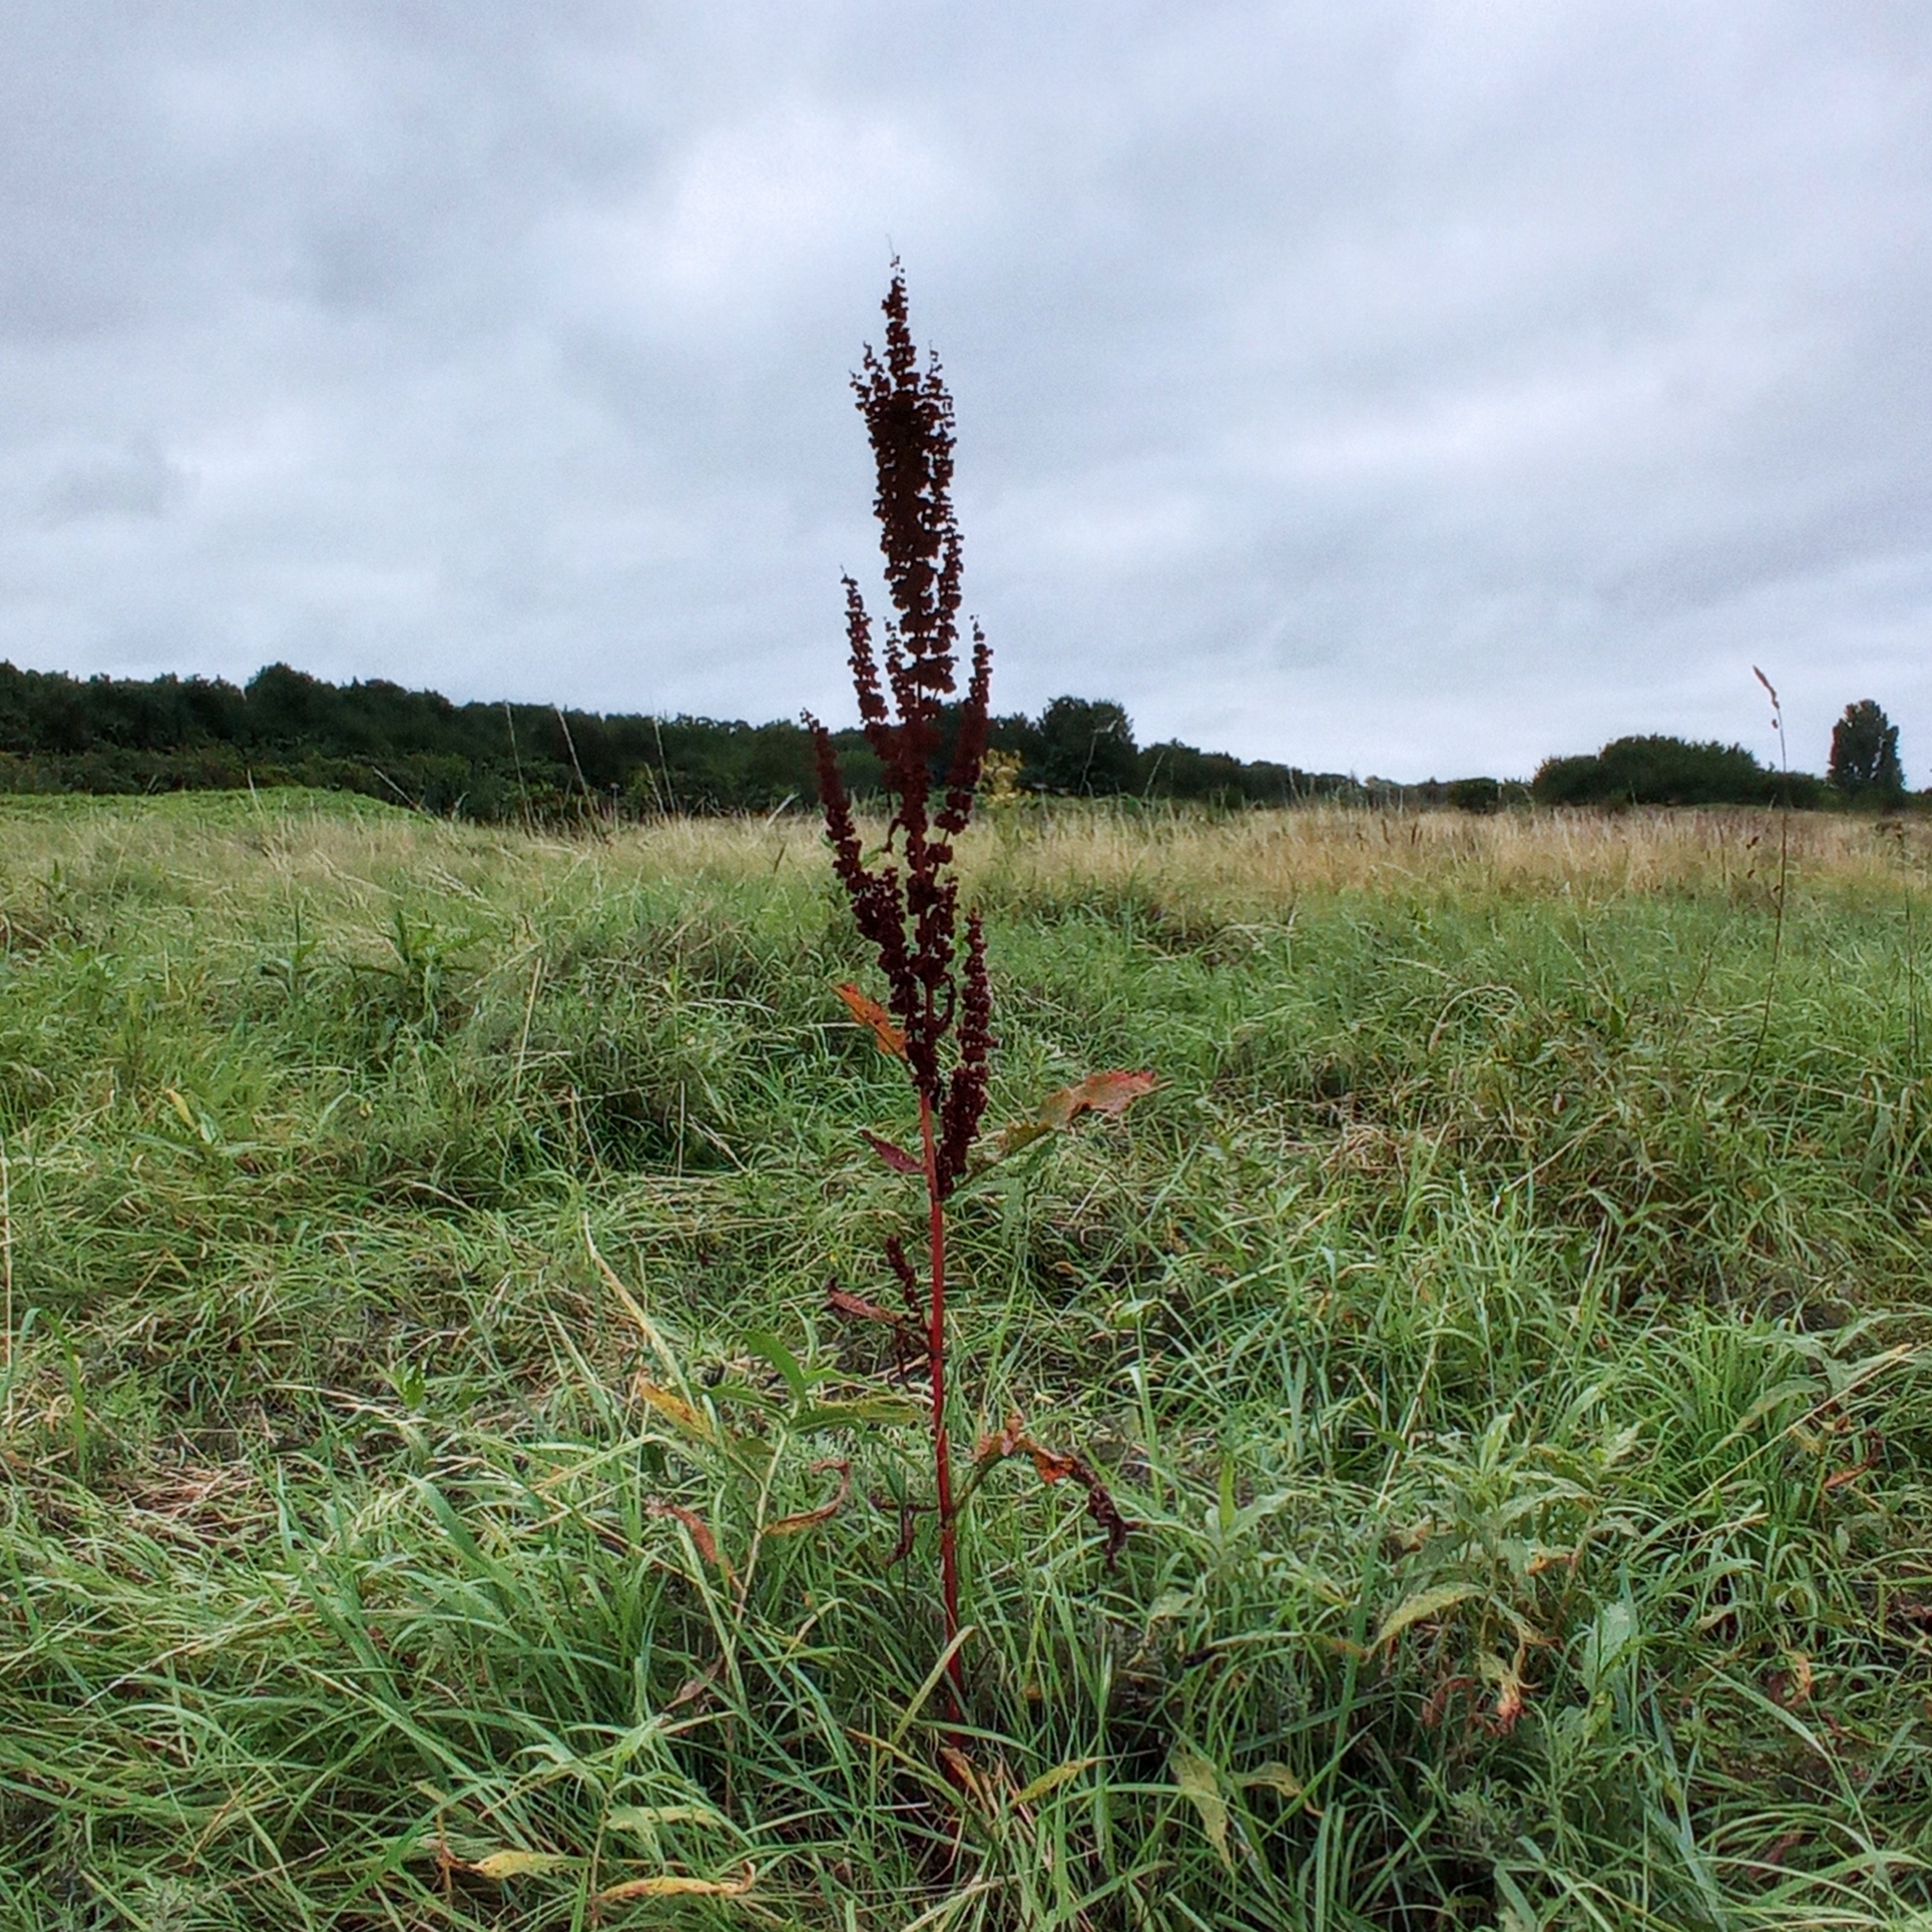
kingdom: Plantae
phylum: Tracheophyta
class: Magnoliopsida
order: Caryophyllales
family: Polygonaceae
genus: Rumex
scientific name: Rumex crispus
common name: Curled dock
